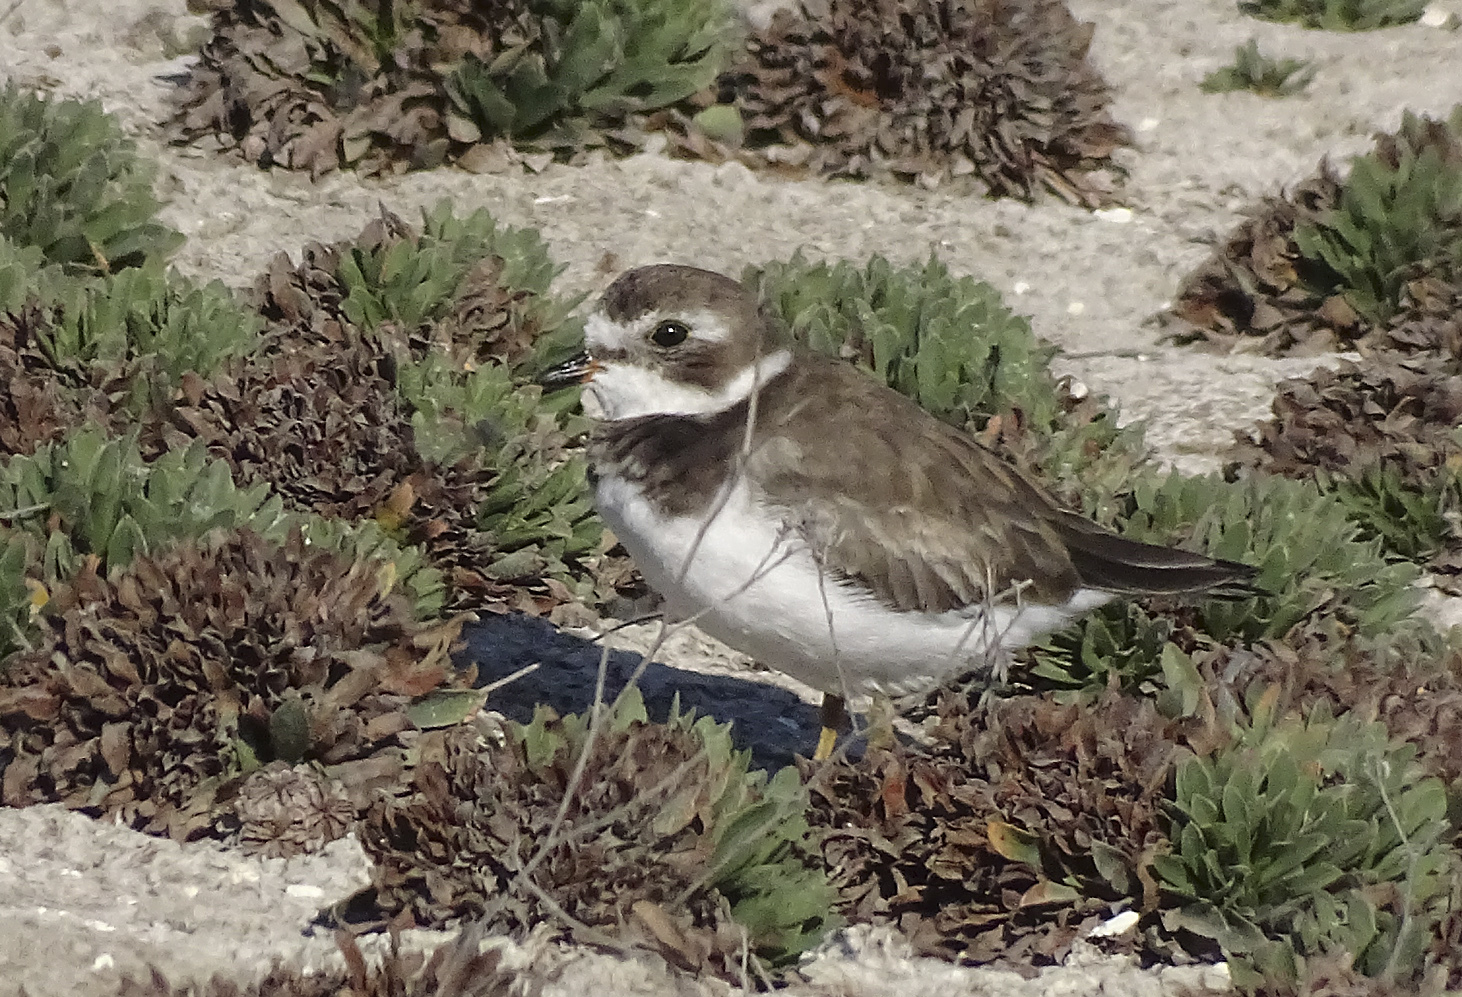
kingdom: Animalia
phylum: Chordata
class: Aves
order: Charadriiformes
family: Charadriidae
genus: Charadrius
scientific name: Charadrius semipalmatus
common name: Semipalmated plover
